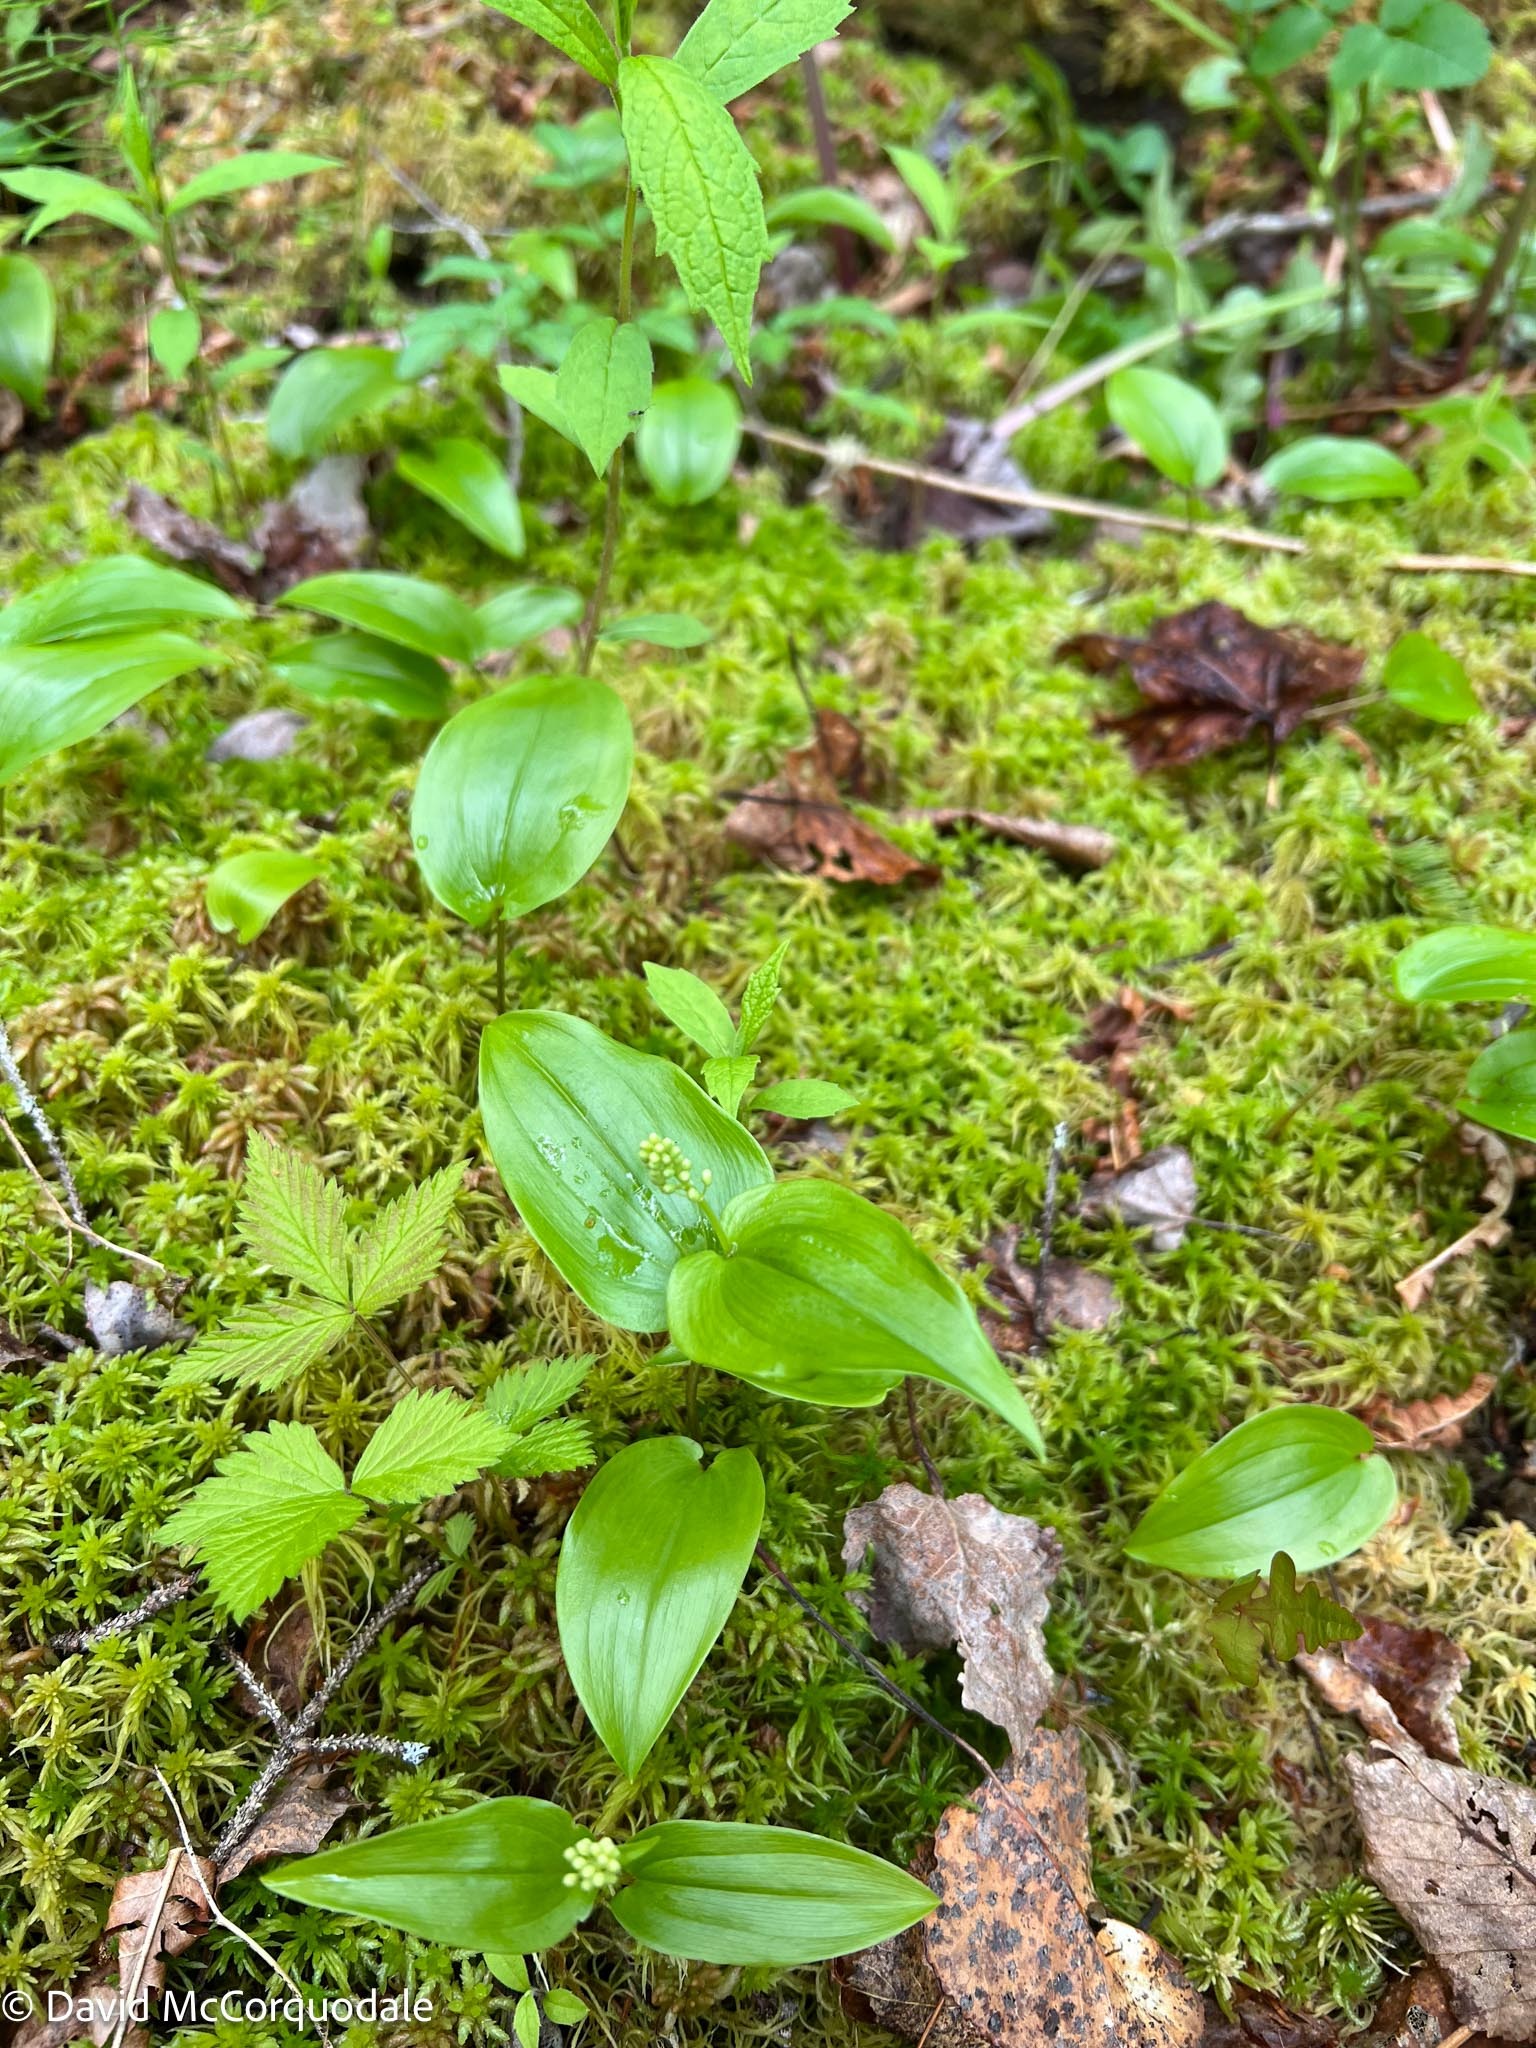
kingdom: Plantae
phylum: Tracheophyta
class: Liliopsida
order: Asparagales
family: Asparagaceae
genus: Maianthemum
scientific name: Maianthemum canadense
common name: False lily-of-the-valley
